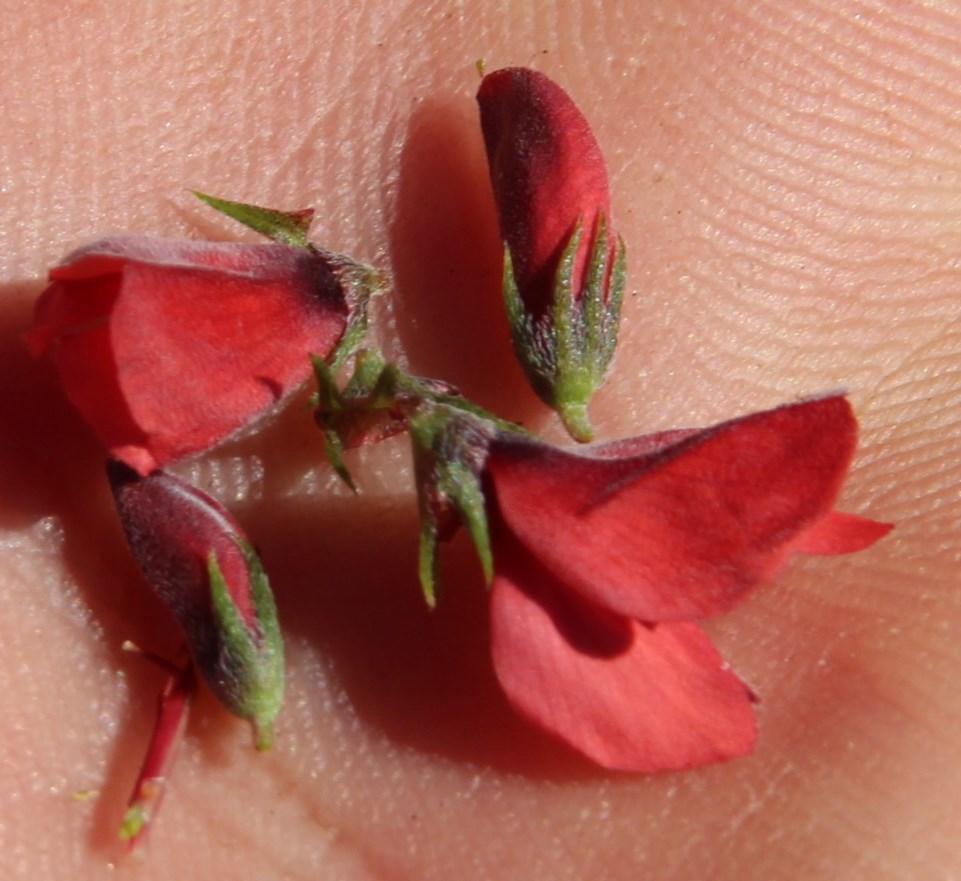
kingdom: Plantae
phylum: Tracheophyta
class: Magnoliopsida
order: Fabales
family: Fabaceae
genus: Indigofera
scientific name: Indigofera heterophylla
